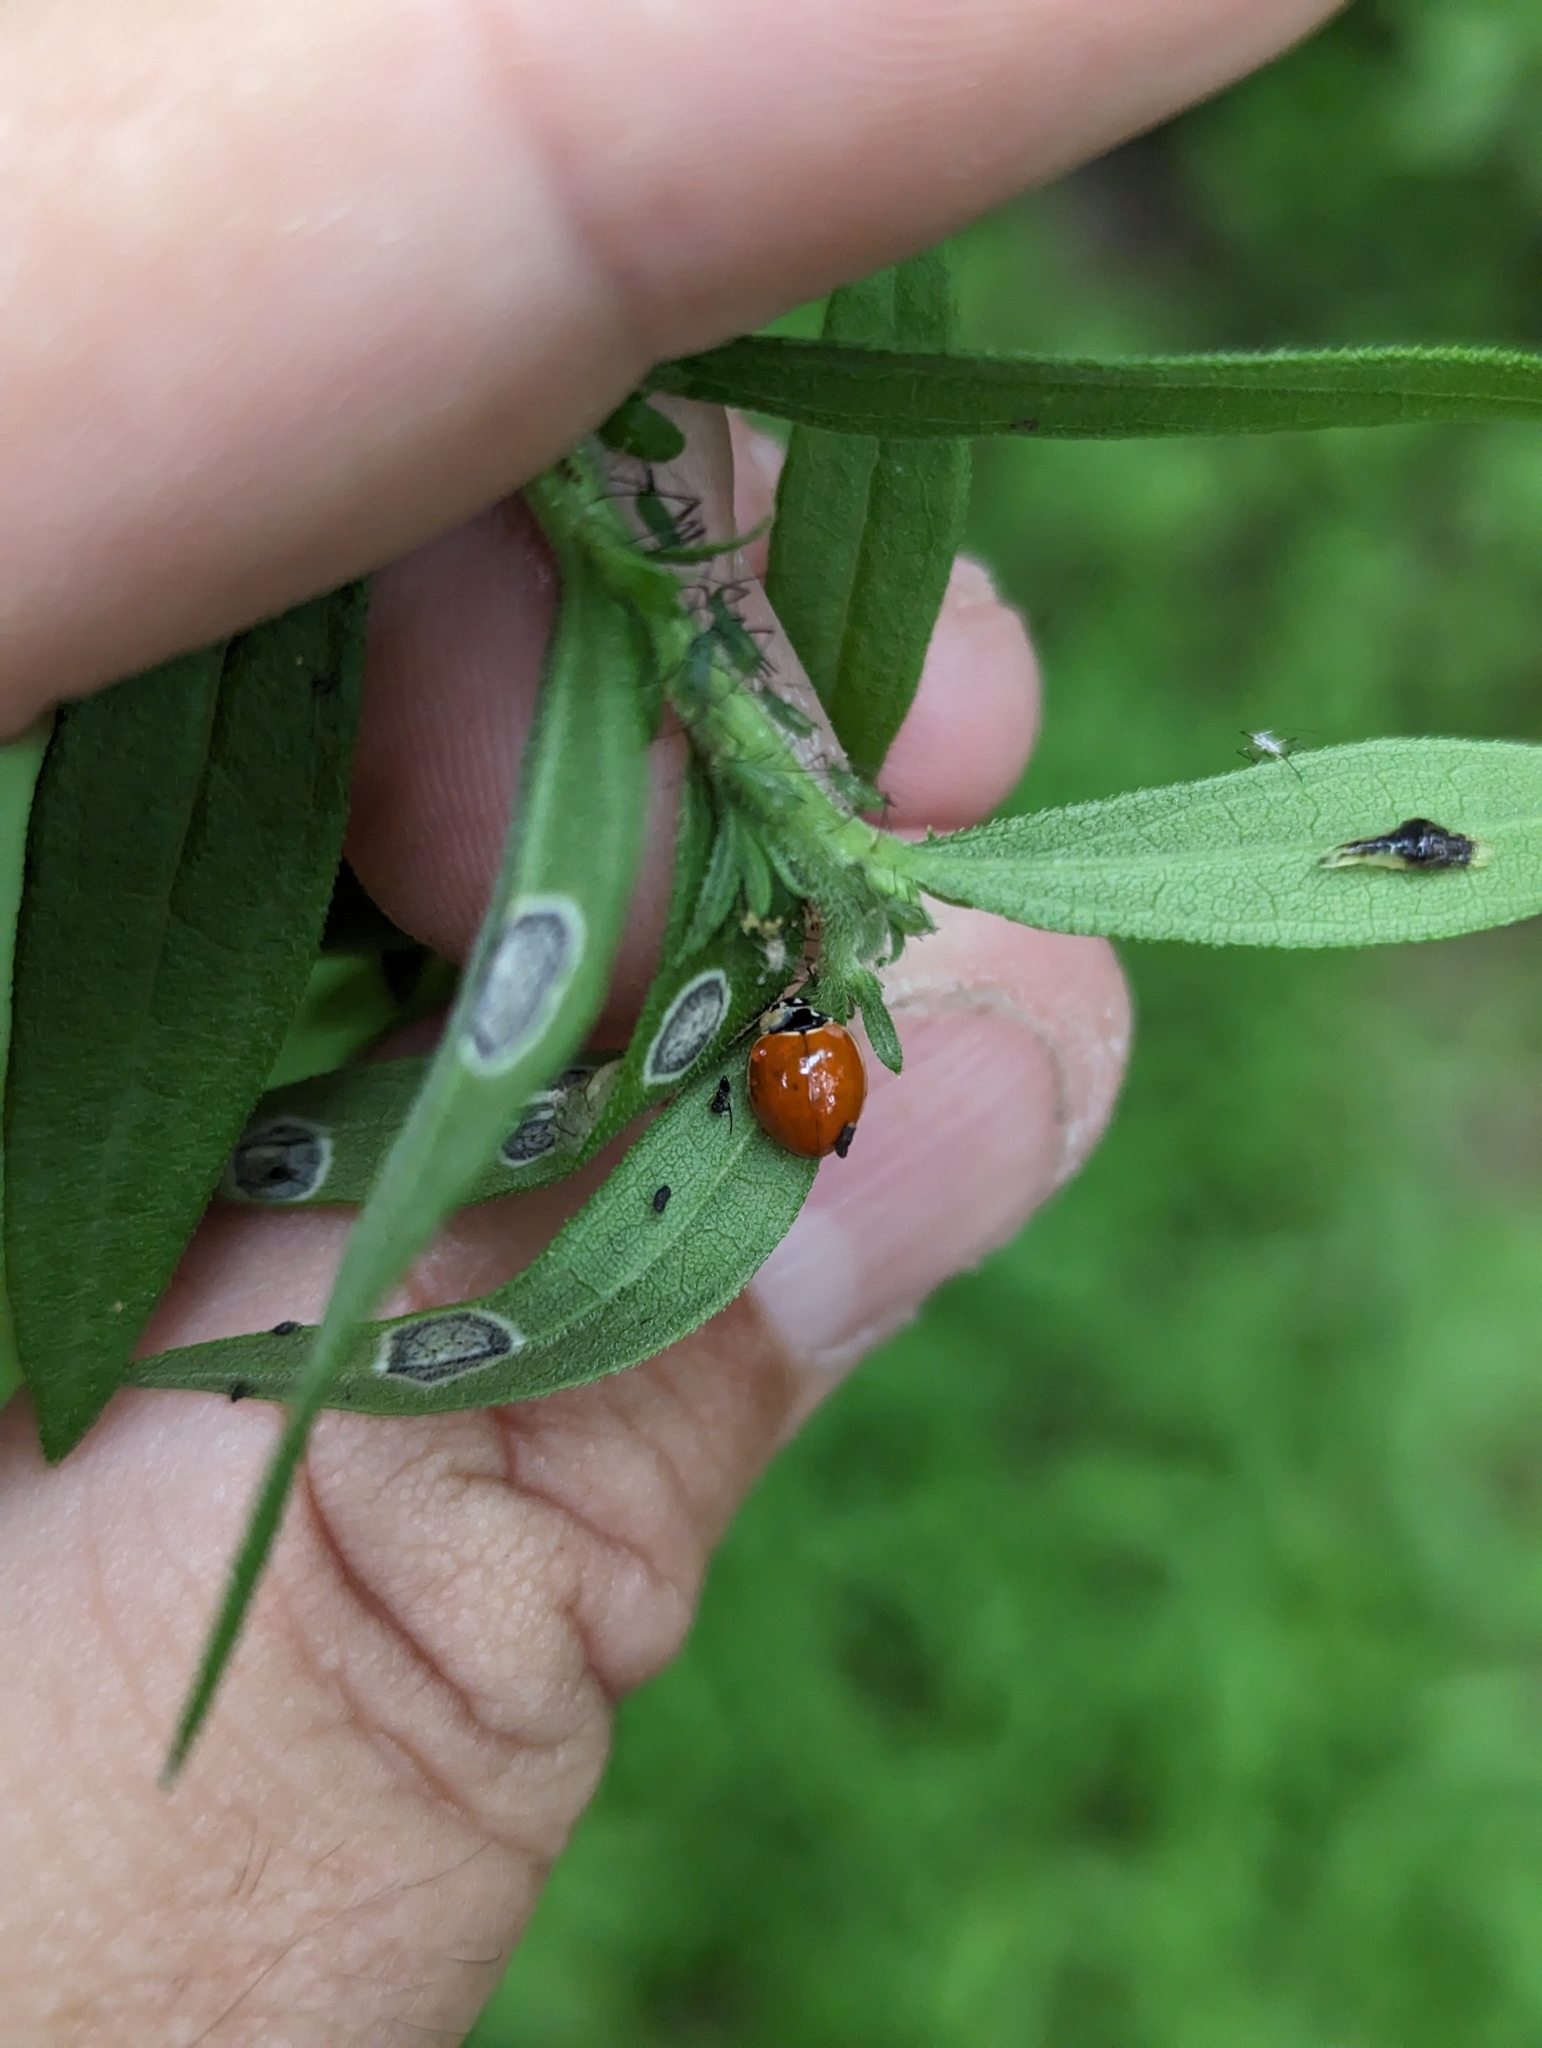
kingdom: Animalia
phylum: Arthropoda
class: Insecta
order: Coleoptera
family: Coccinellidae
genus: Cycloneda
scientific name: Cycloneda munda
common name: Polished lady beetle
